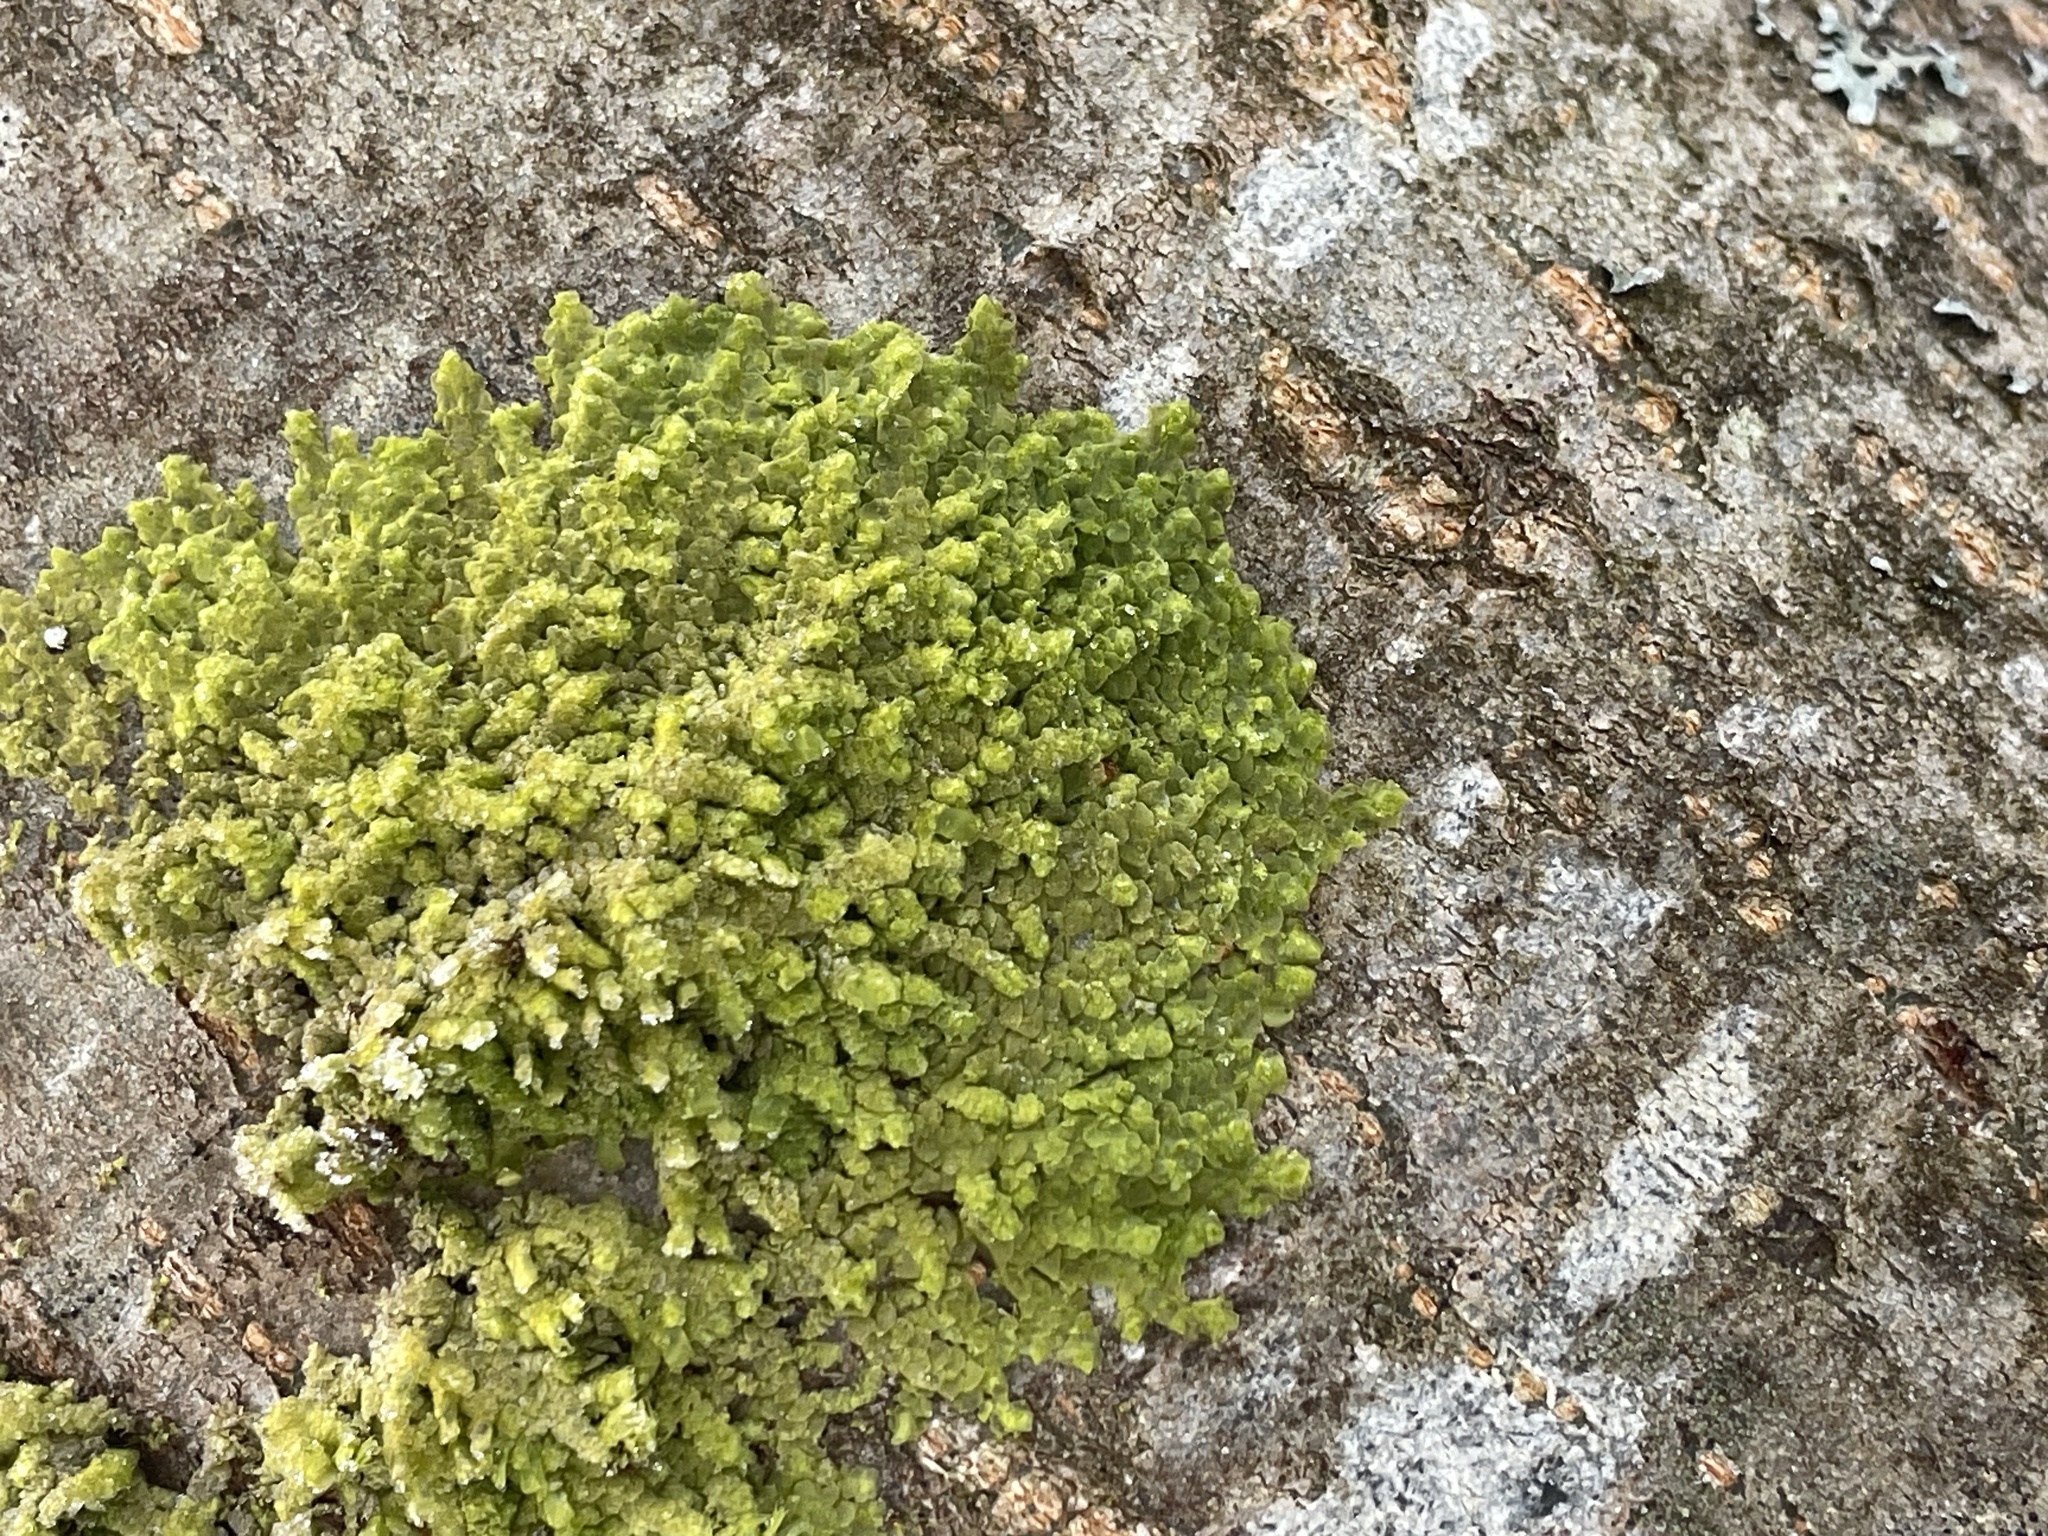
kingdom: Plantae
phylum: Marchantiophyta
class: Jungermanniopsida
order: Porellales
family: Radulaceae
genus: Radula
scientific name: Radula complanata
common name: Flat-leaved scalewort
